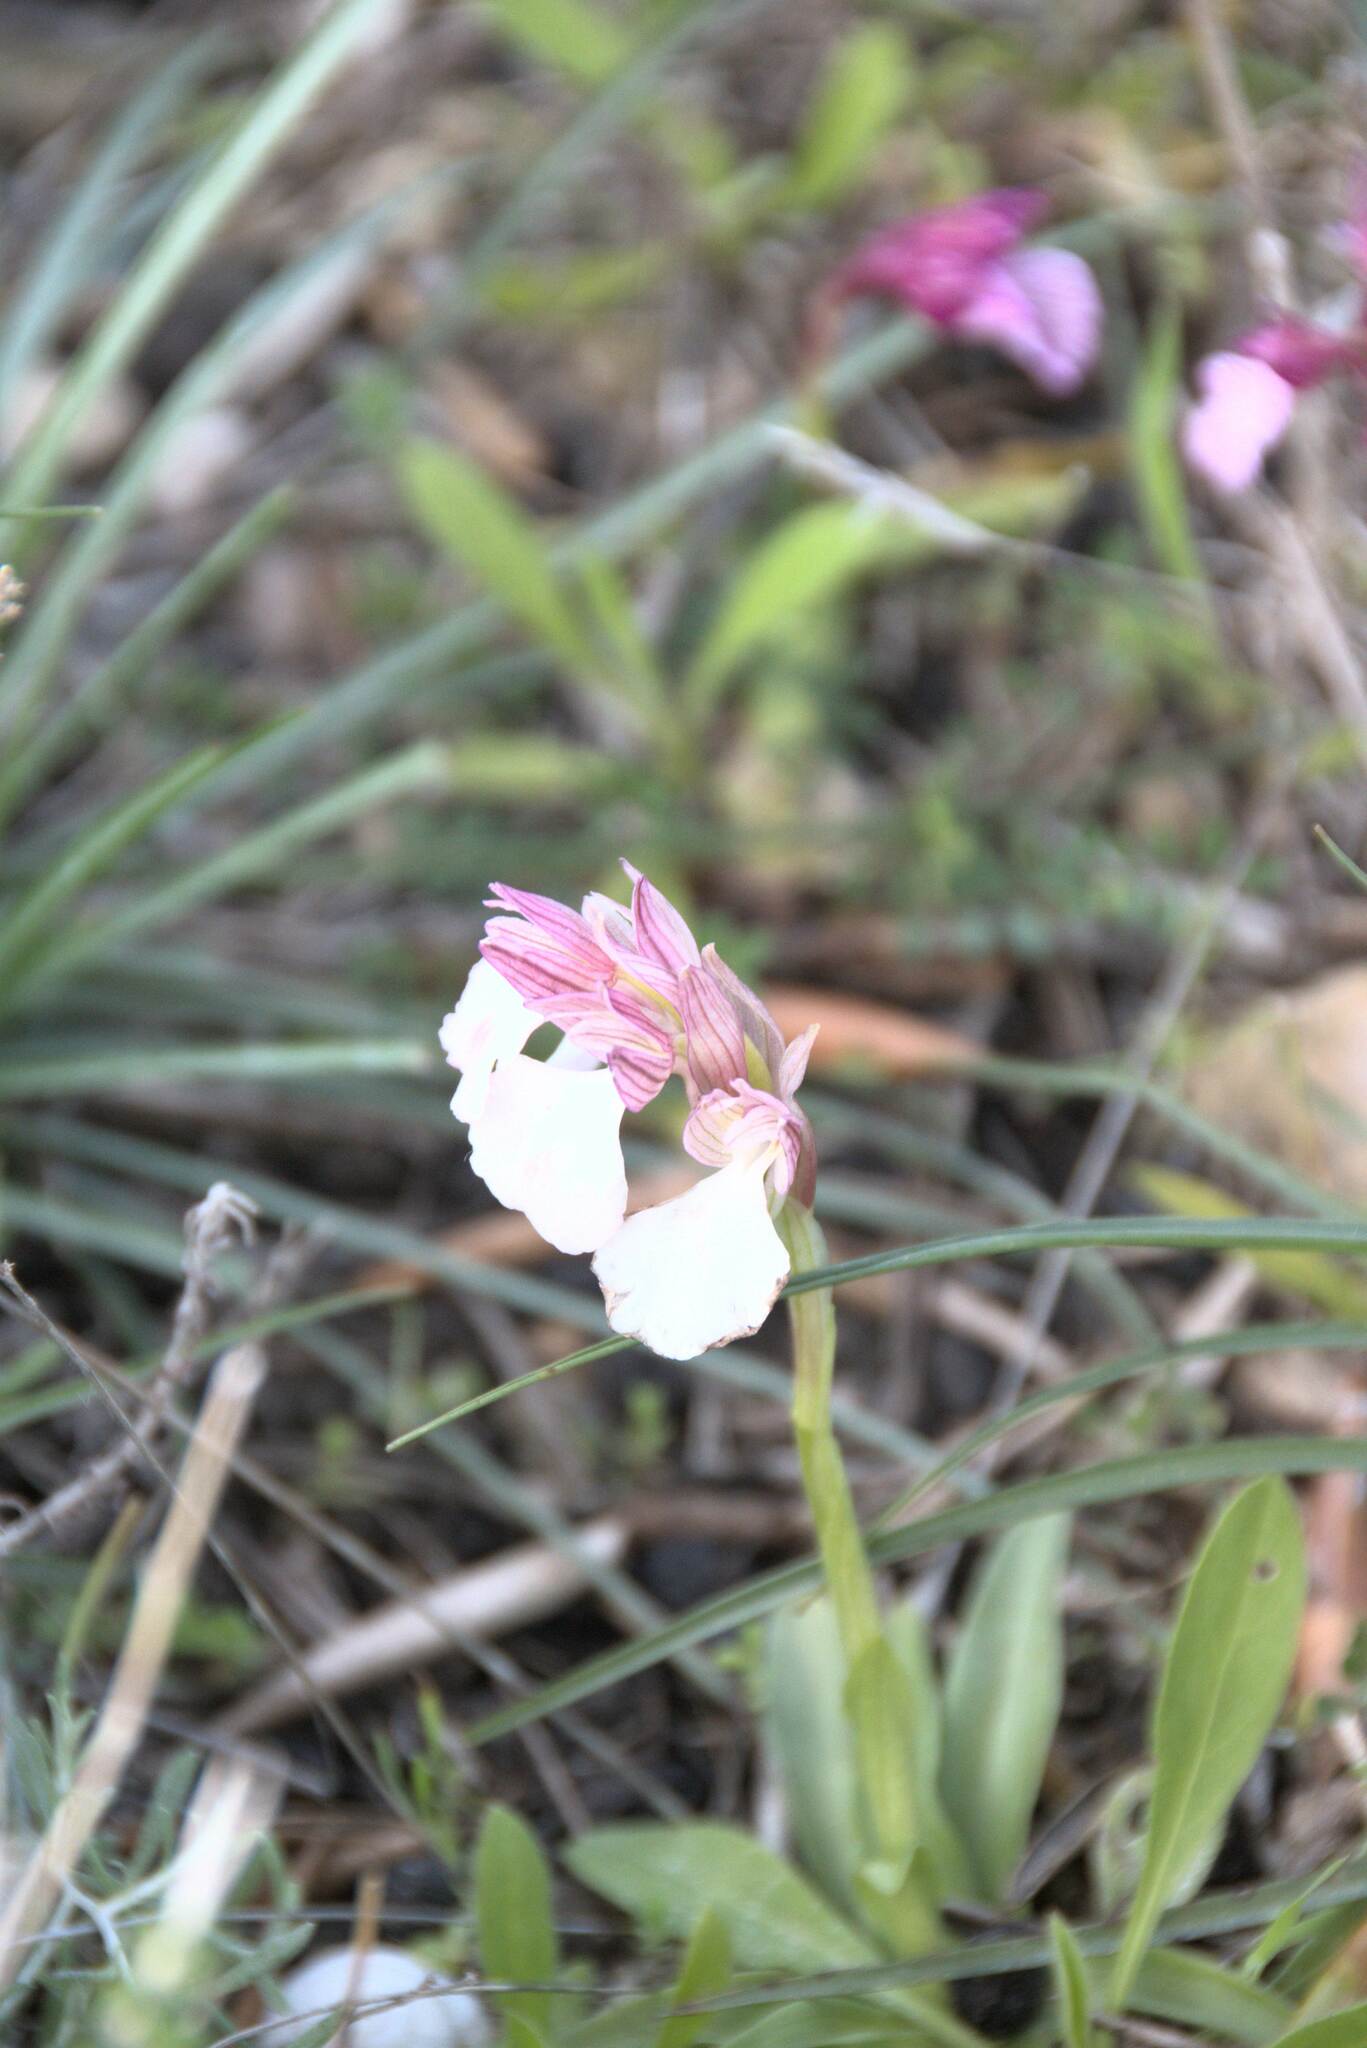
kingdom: Plantae
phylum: Tracheophyta
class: Liliopsida
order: Asparagales
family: Orchidaceae
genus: Anacamptis
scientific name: Anacamptis papilionacea
